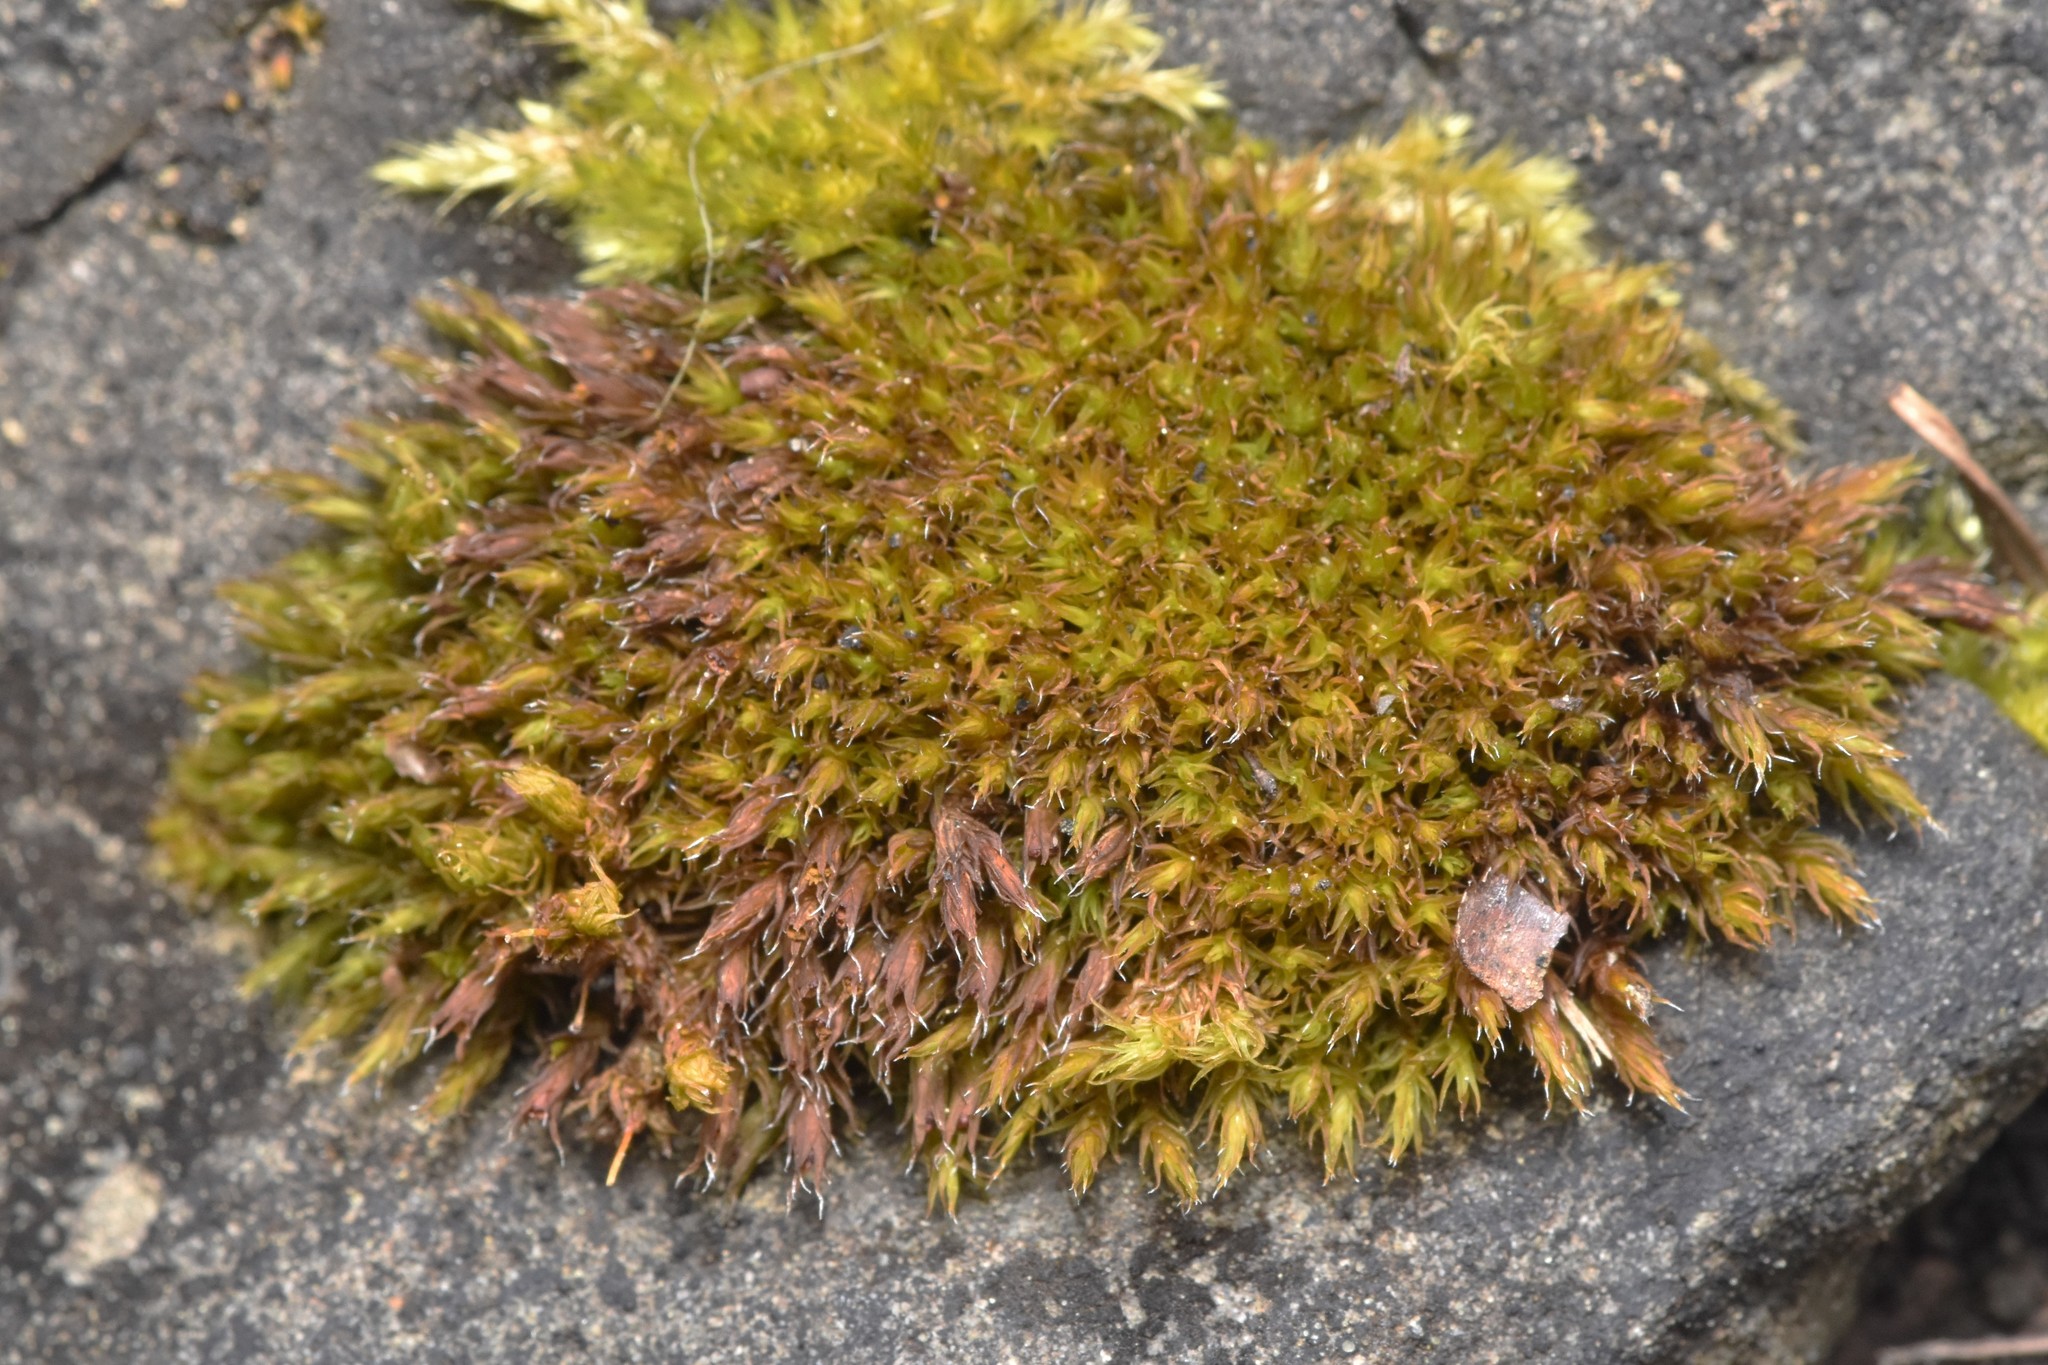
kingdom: Plantae
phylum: Bryophyta
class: Bryopsida
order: Grimmiales
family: Grimmiaceae
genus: Schistidium
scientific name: Schistidium papillosum
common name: Papillose bloom moss
